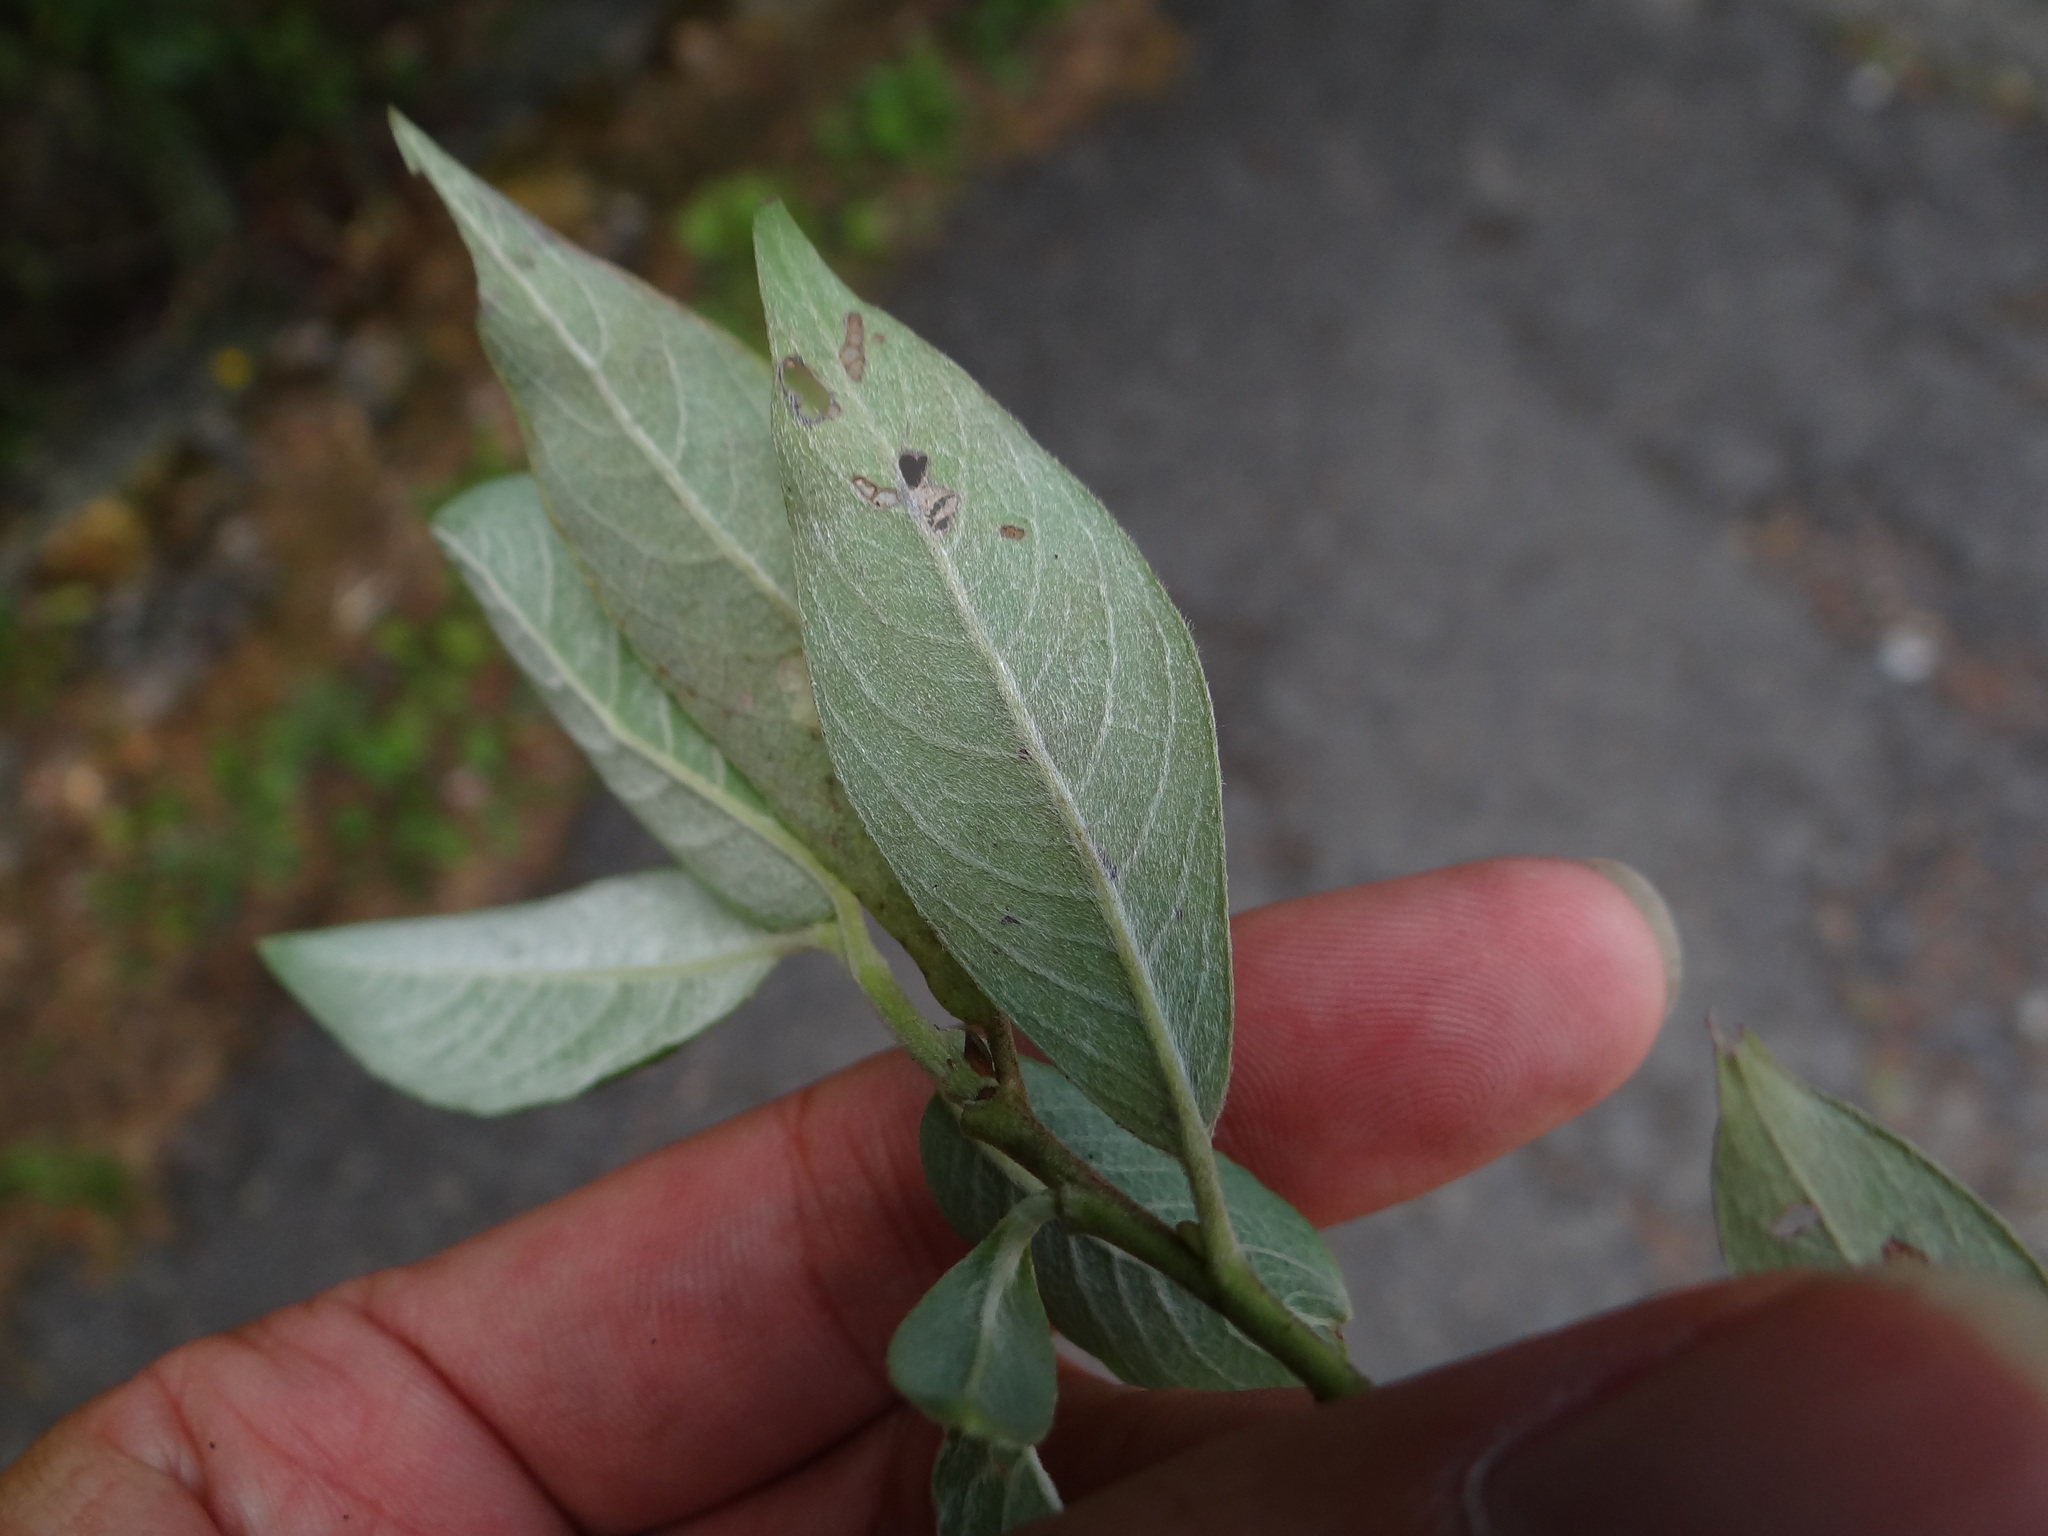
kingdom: Plantae
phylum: Tracheophyta
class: Magnoliopsida
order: Malpighiales
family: Salicaceae
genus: Salix
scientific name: Salix fulvopubescens
